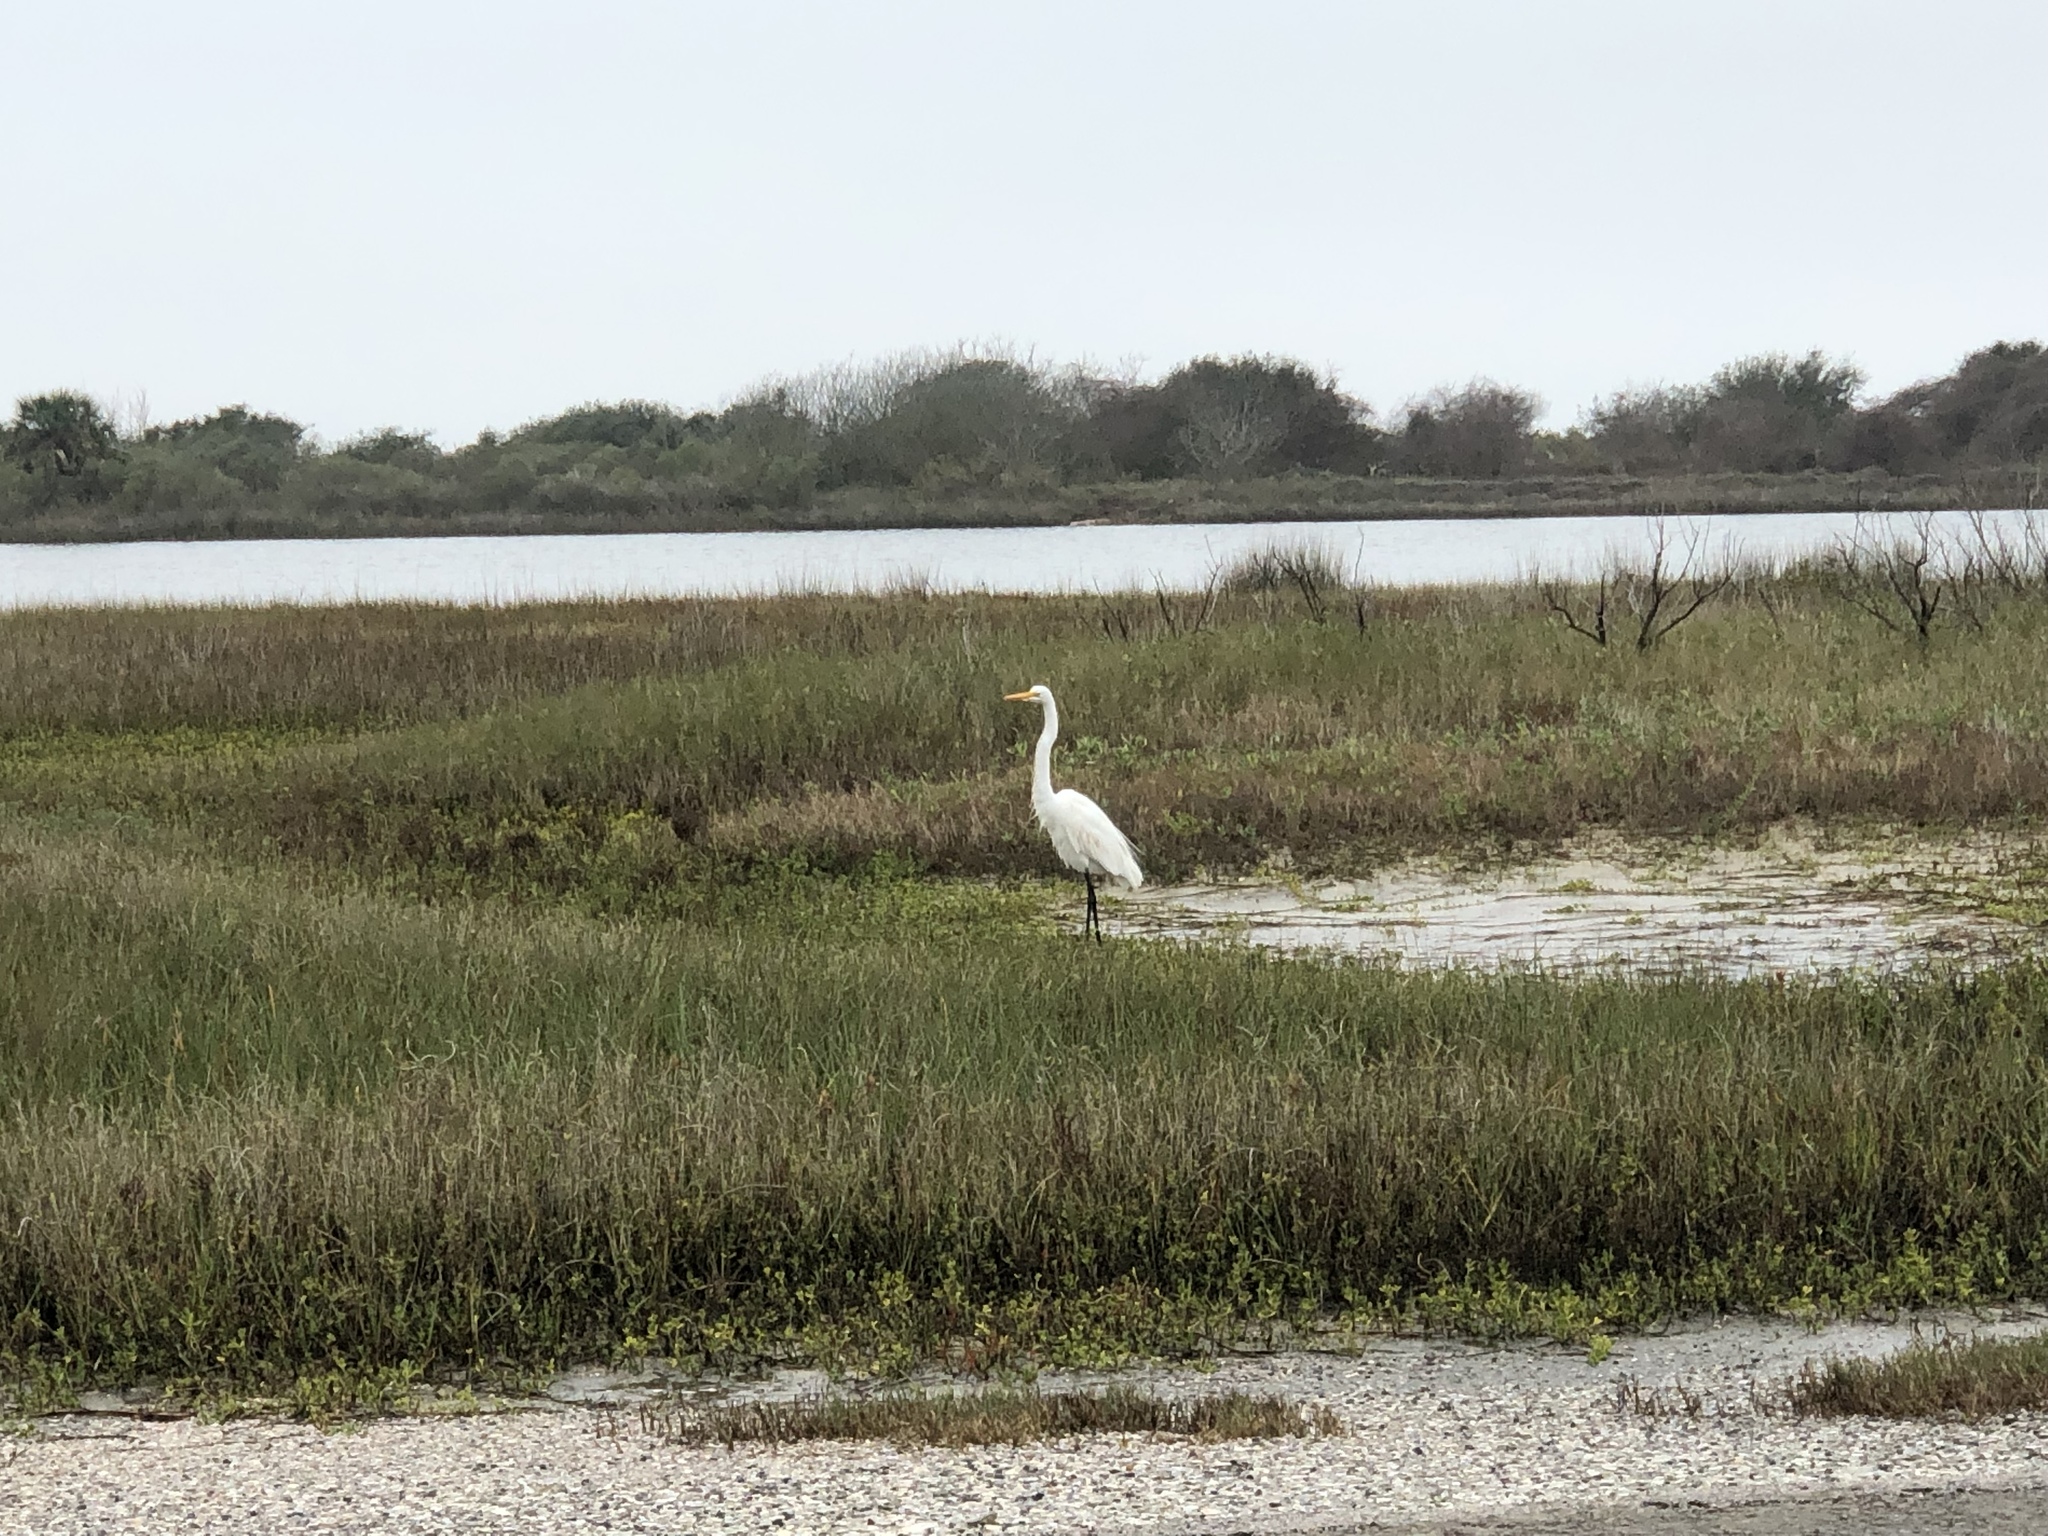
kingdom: Animalia
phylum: Chordata
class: Aves
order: Pelecaniformes
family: Ardeidae
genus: Ardea
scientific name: Ardea alba
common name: Great egret
